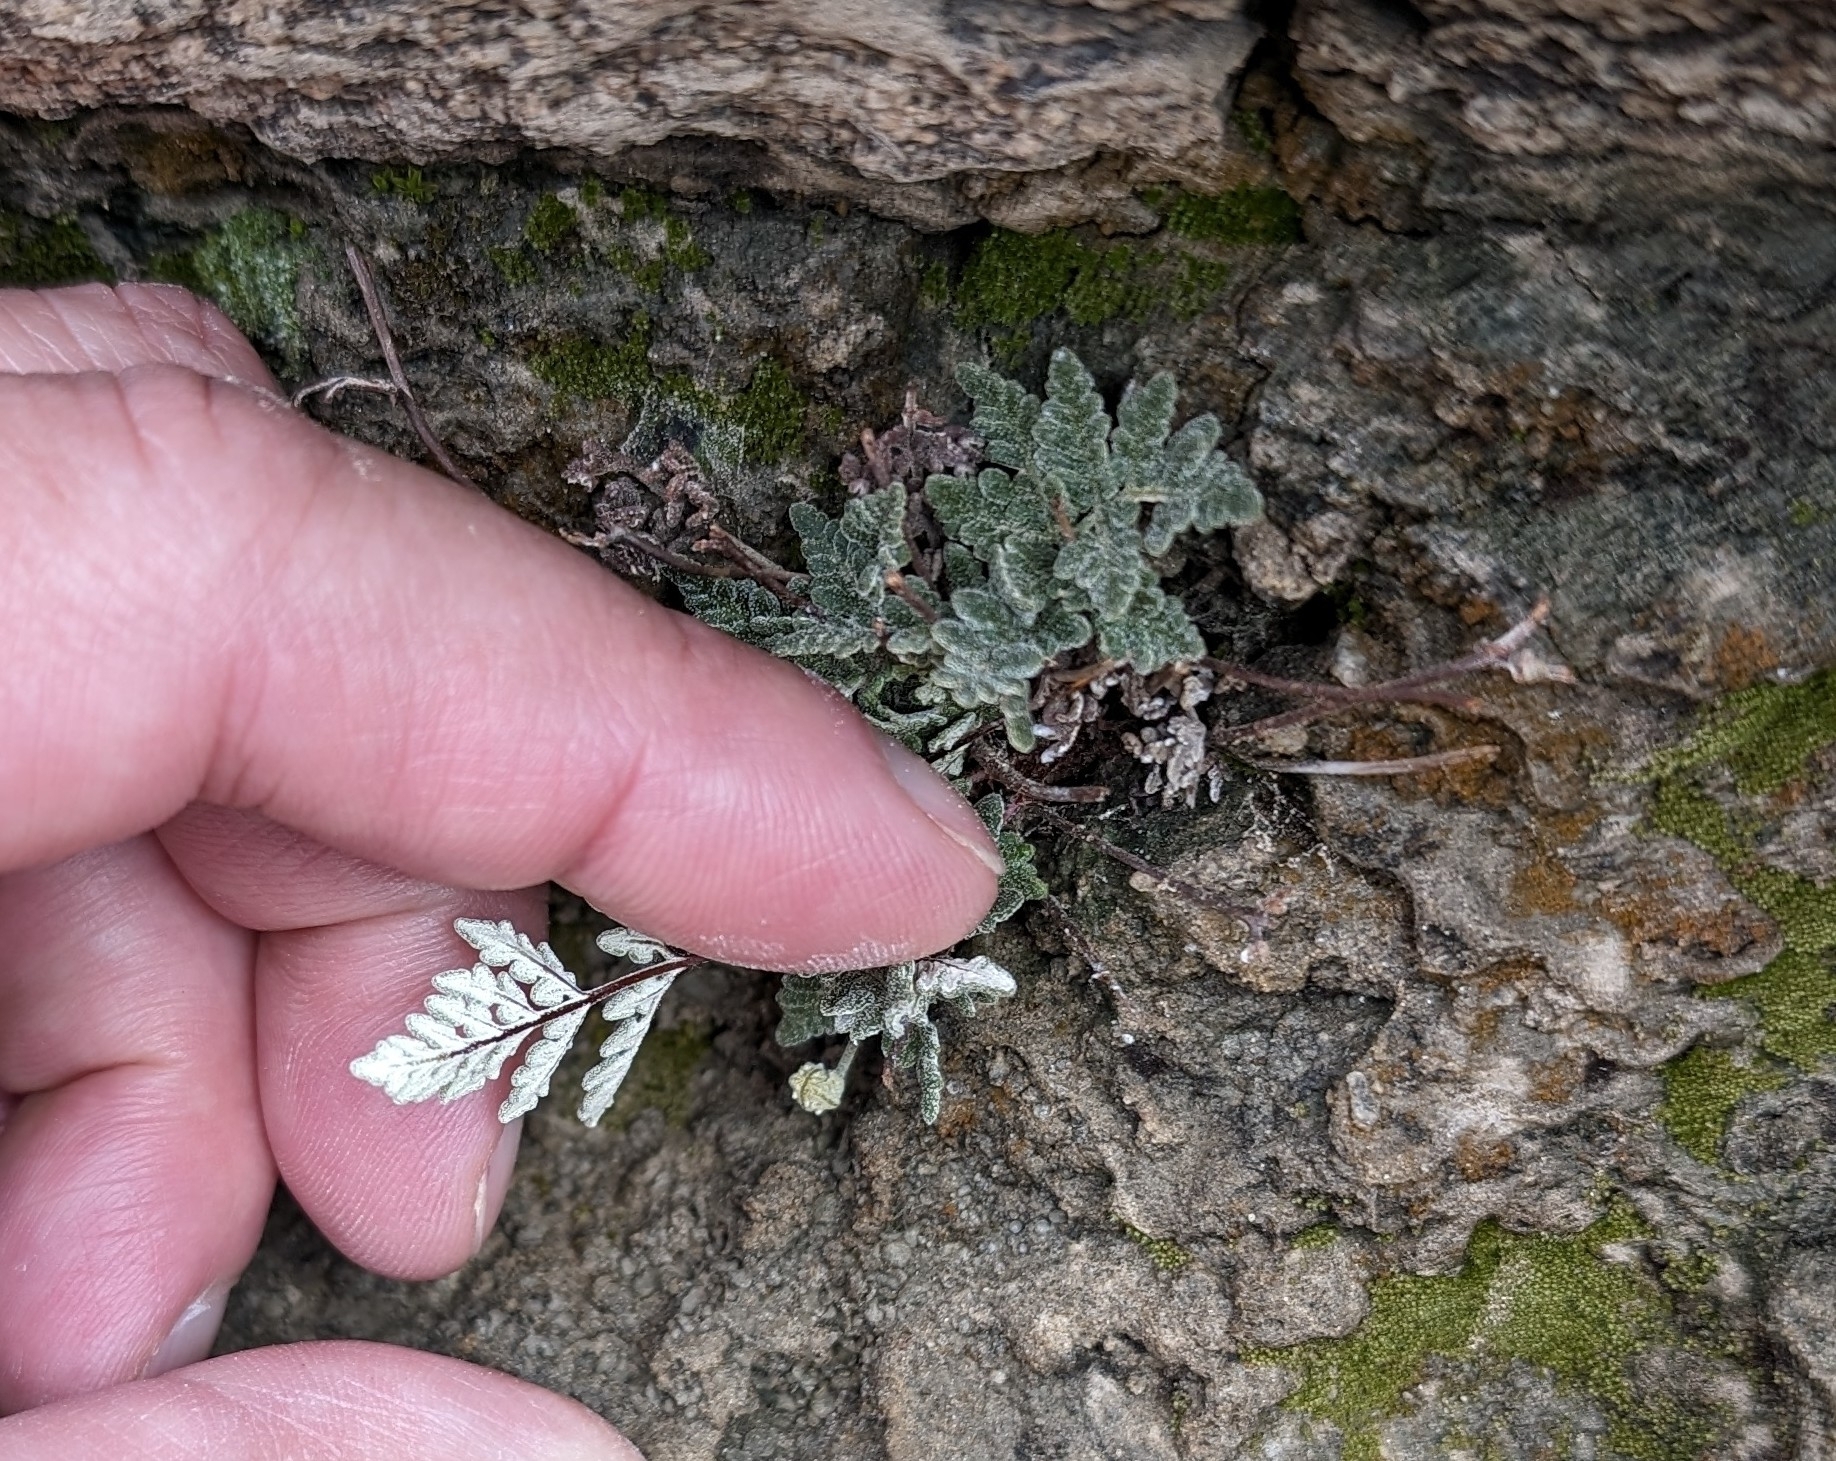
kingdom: Plantae
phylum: Tracheophyta
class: Polypodiopsida
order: Polypodiales
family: Pteridaceae
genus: Notholaena
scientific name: Notholaena californica
